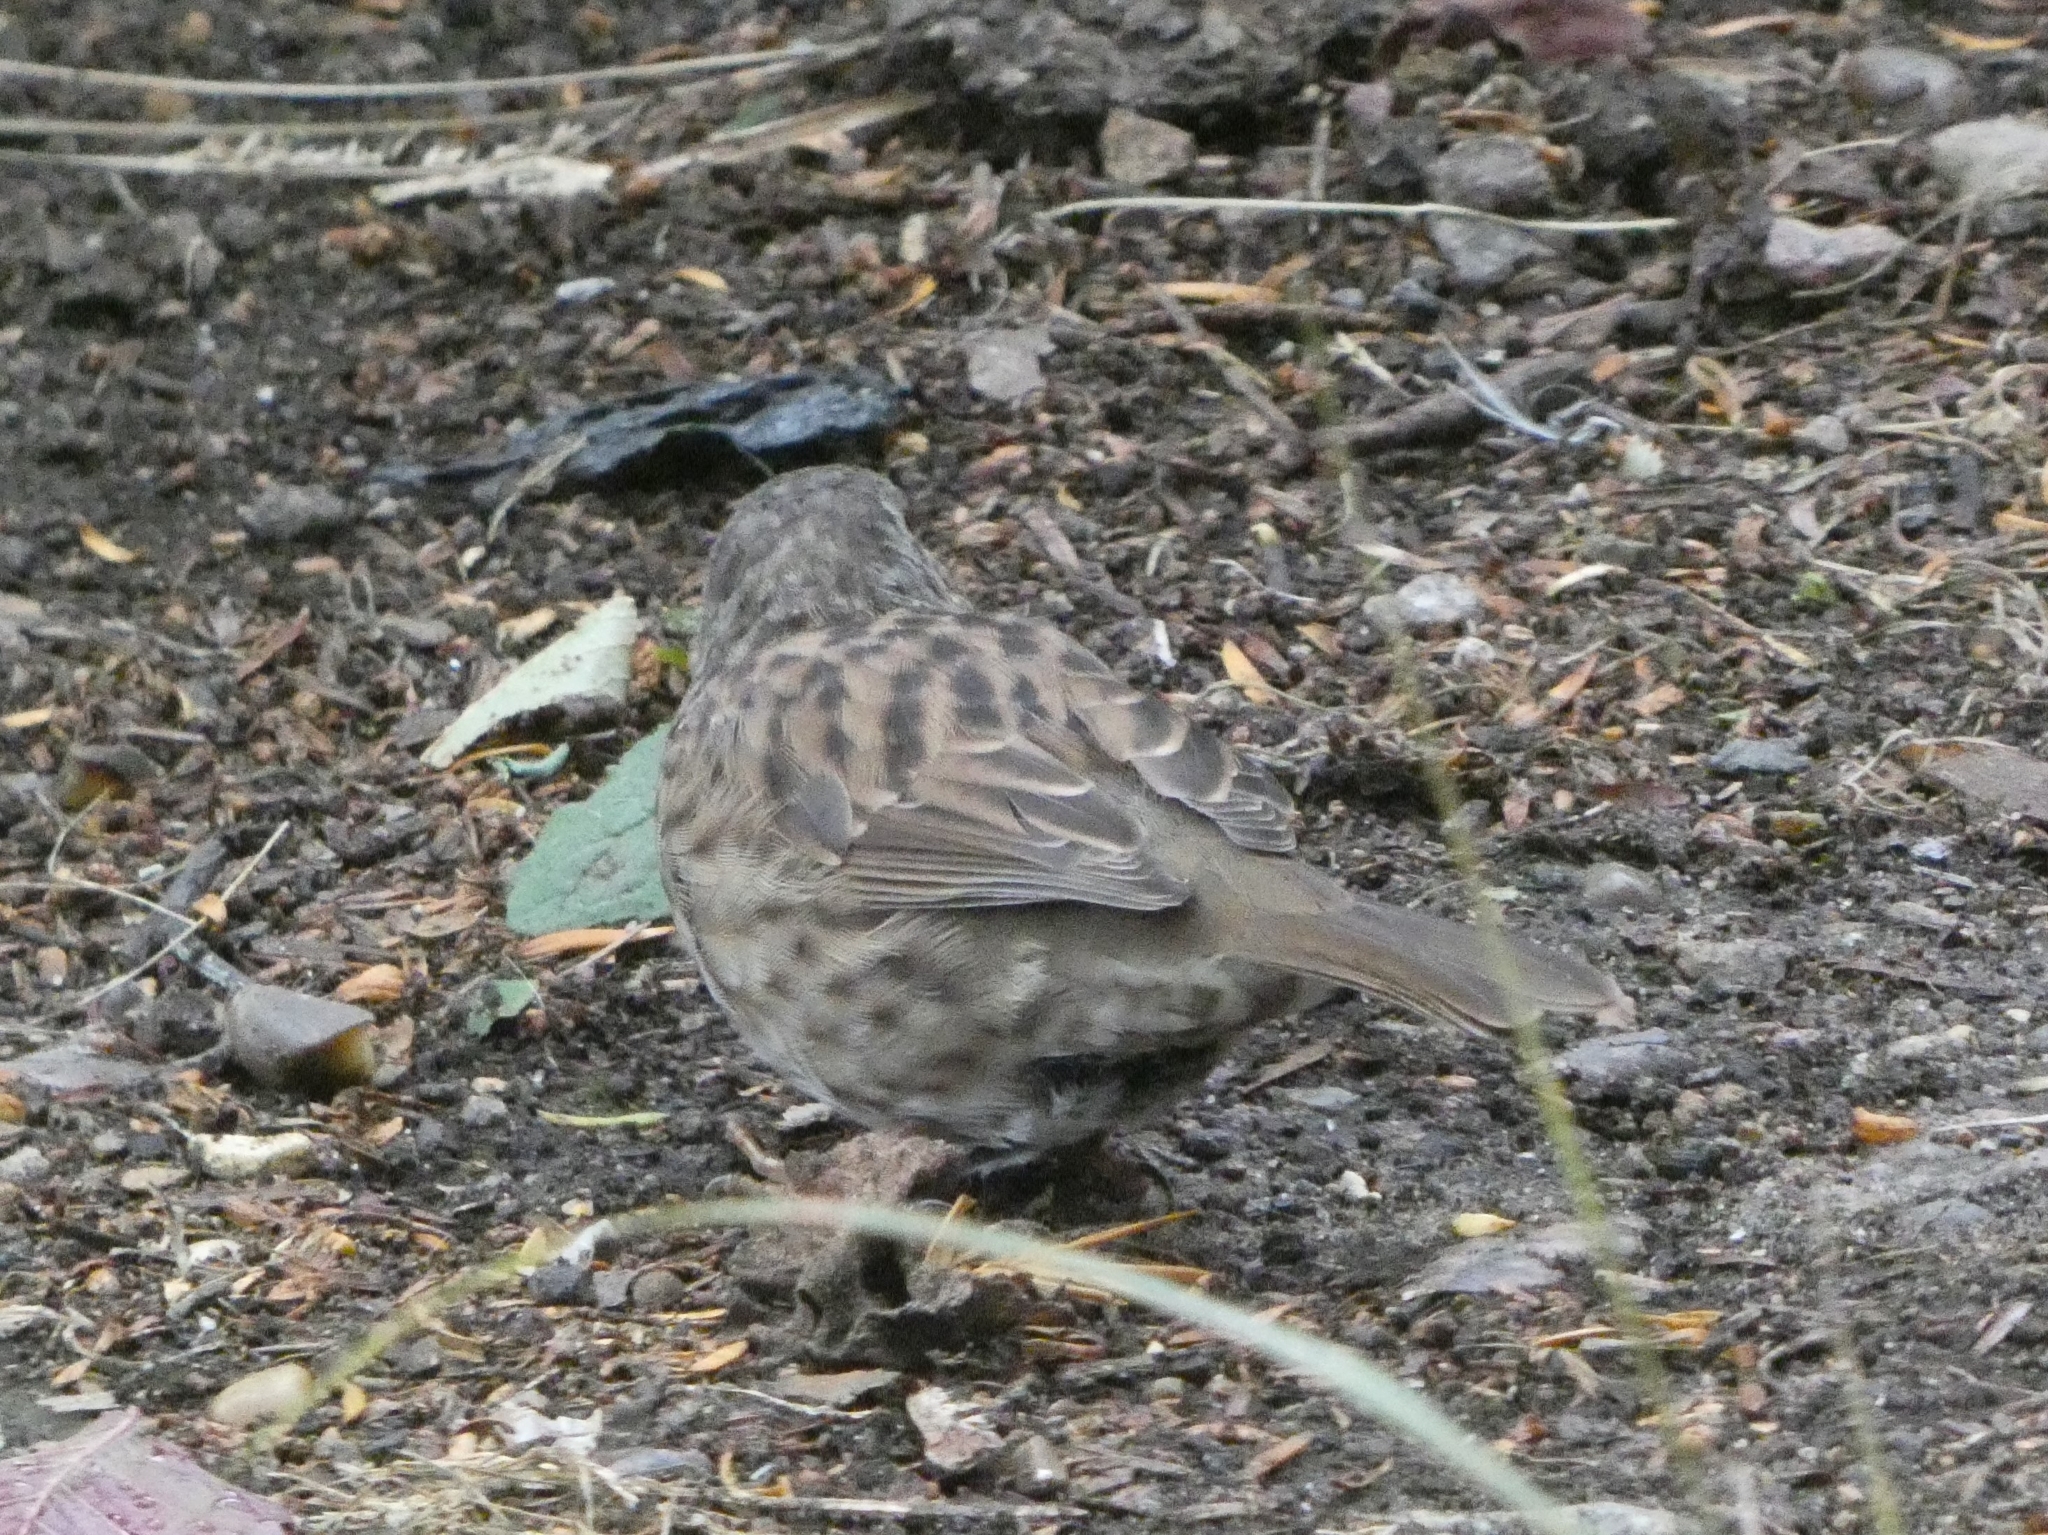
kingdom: Animalia
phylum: Chordata
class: Aves
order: Passeriformes
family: Prunellidae
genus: Prunella
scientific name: Prunella modularis
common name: Dunnock
